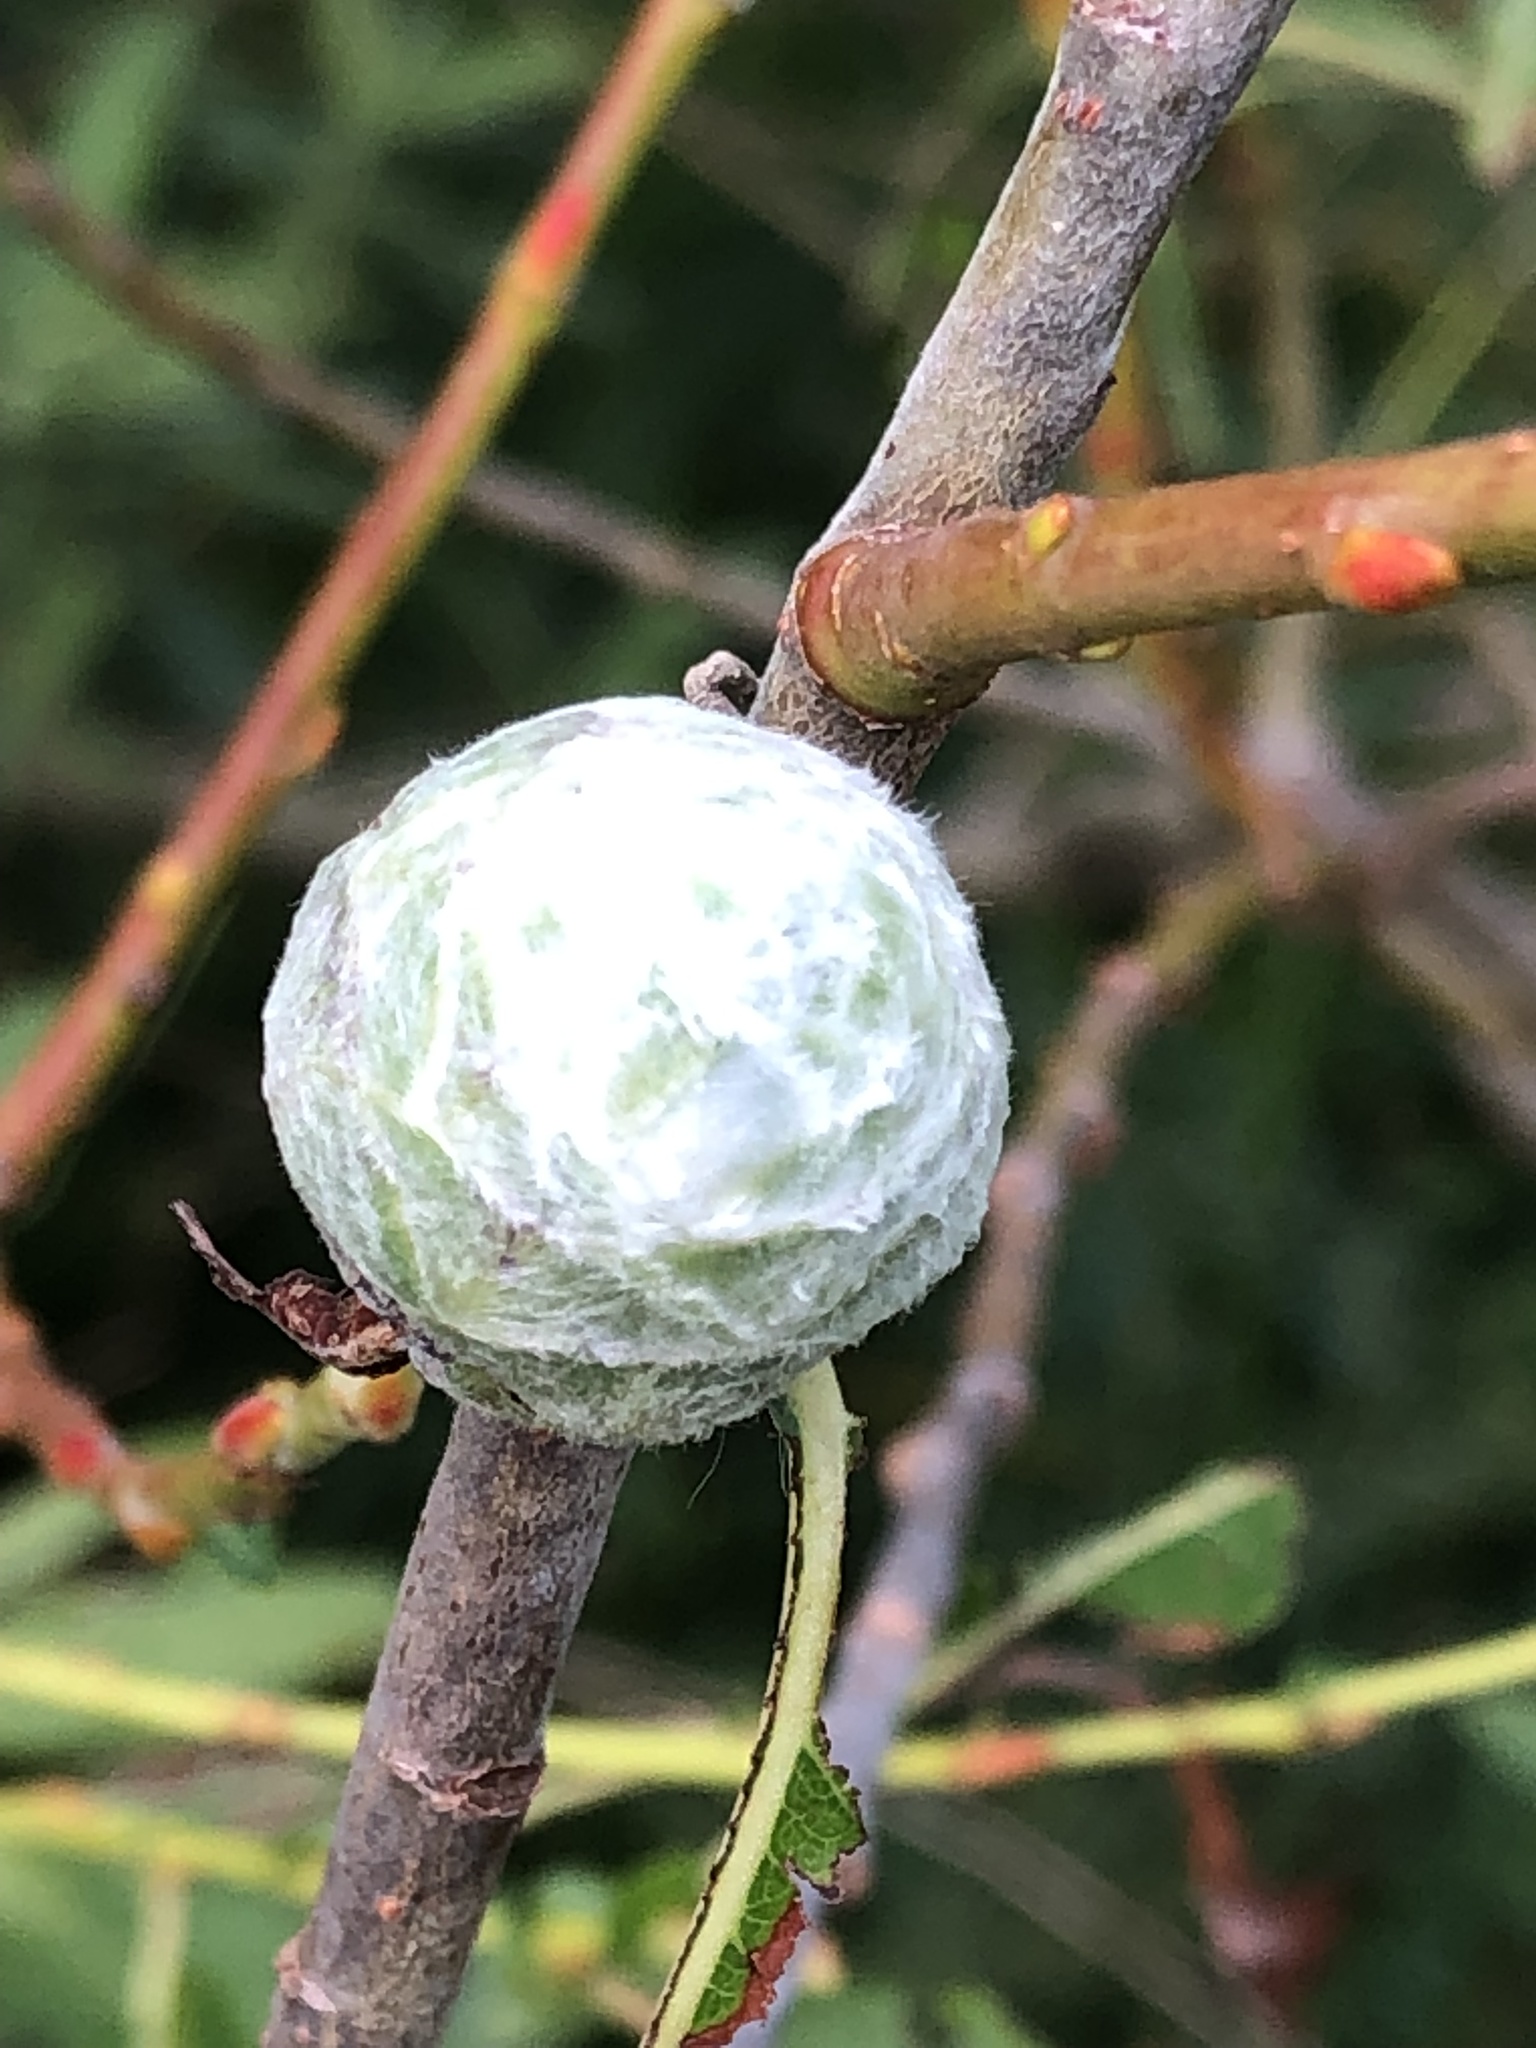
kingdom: Animalia
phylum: Arthropoda
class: Insecta
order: Diptera
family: Cecidomyiidae
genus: Rabdophaga
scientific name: Rabdophaga strobiloides
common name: Willow pinecone gall midge
